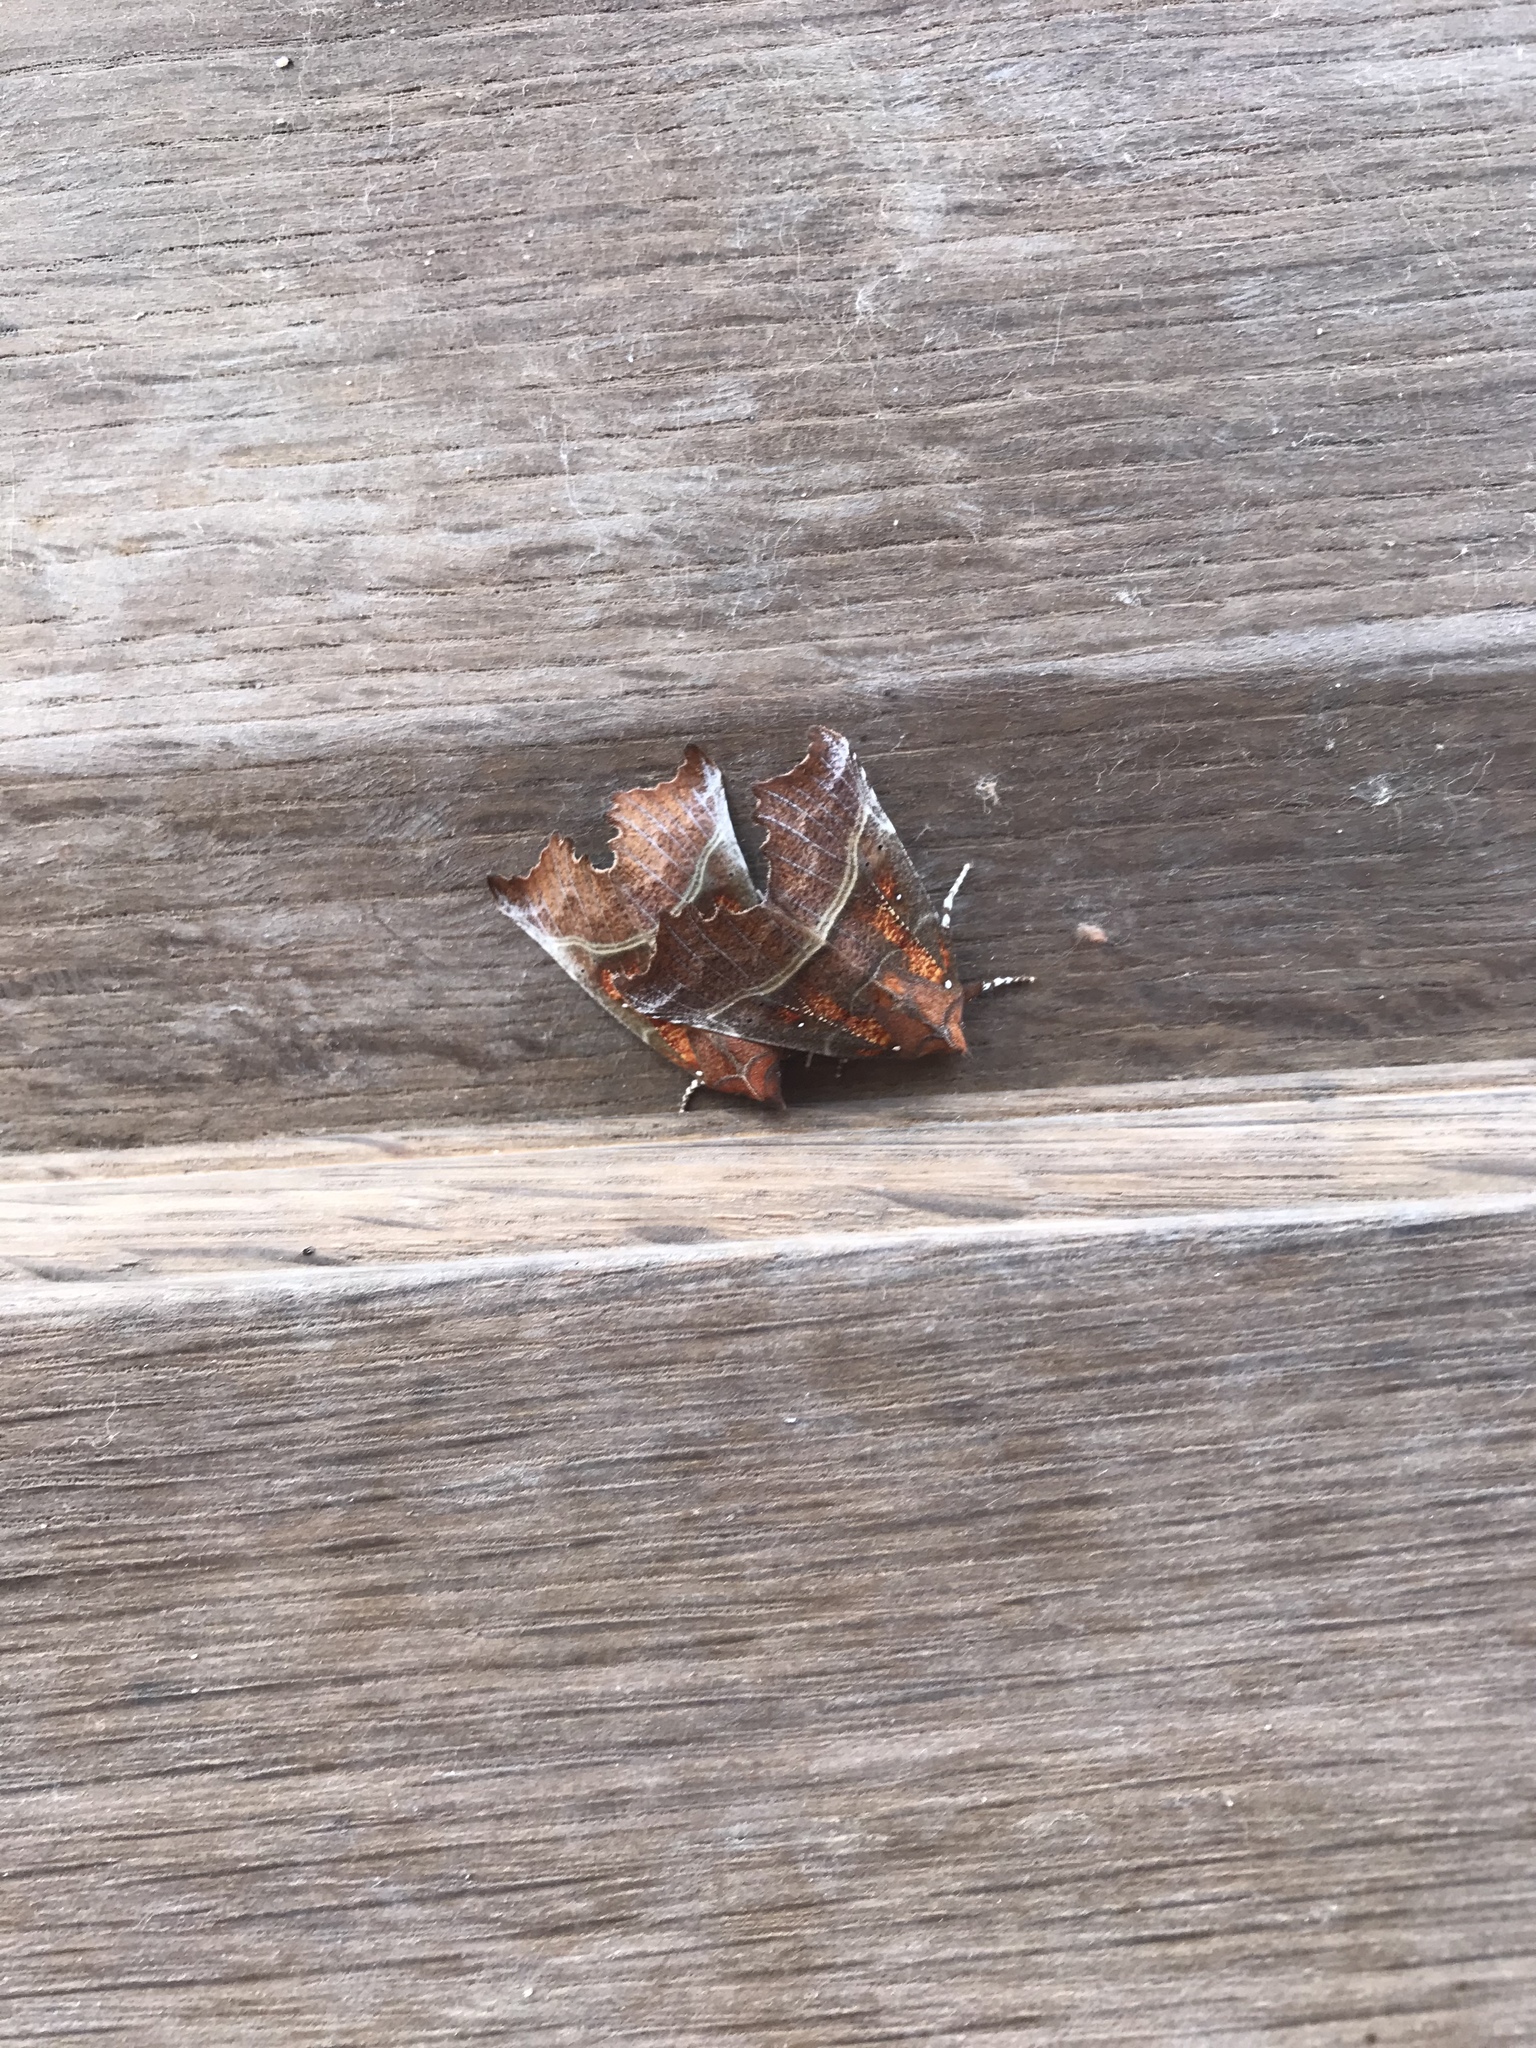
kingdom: Animalia
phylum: Arthropoda
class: Insecta
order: Lepidoptera
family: Erebidae
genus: Scoliopteryx
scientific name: Scoliopteryx libatrix
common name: Herald
